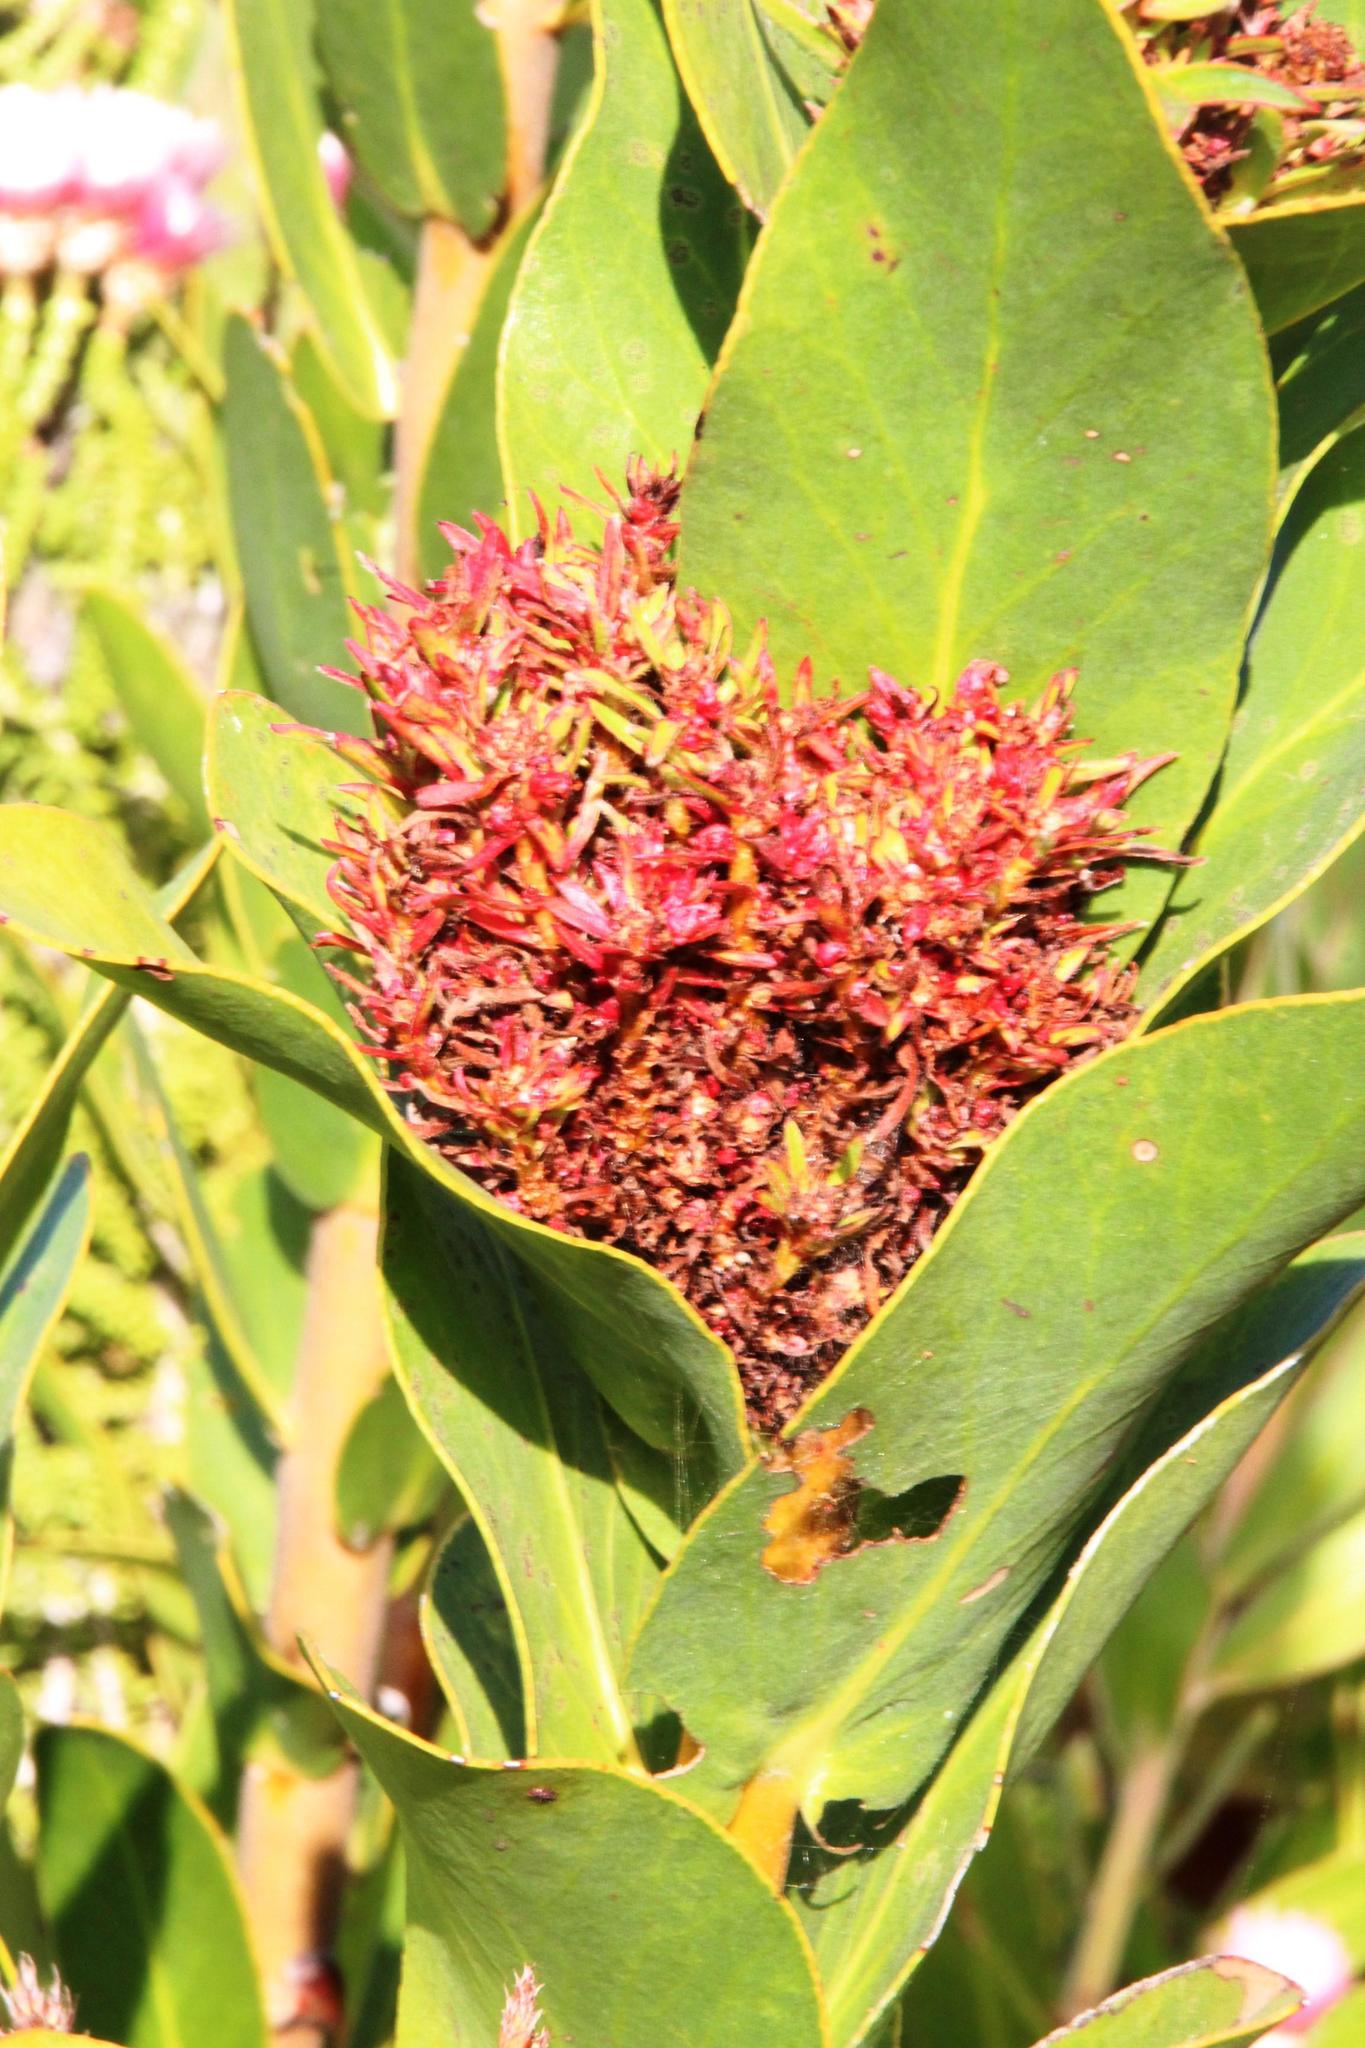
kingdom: Bacteria
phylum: Firmicutes
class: Bacilli
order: Acholeplasmatales
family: Acholeplasmataceae
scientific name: Acholeplasmataceae
